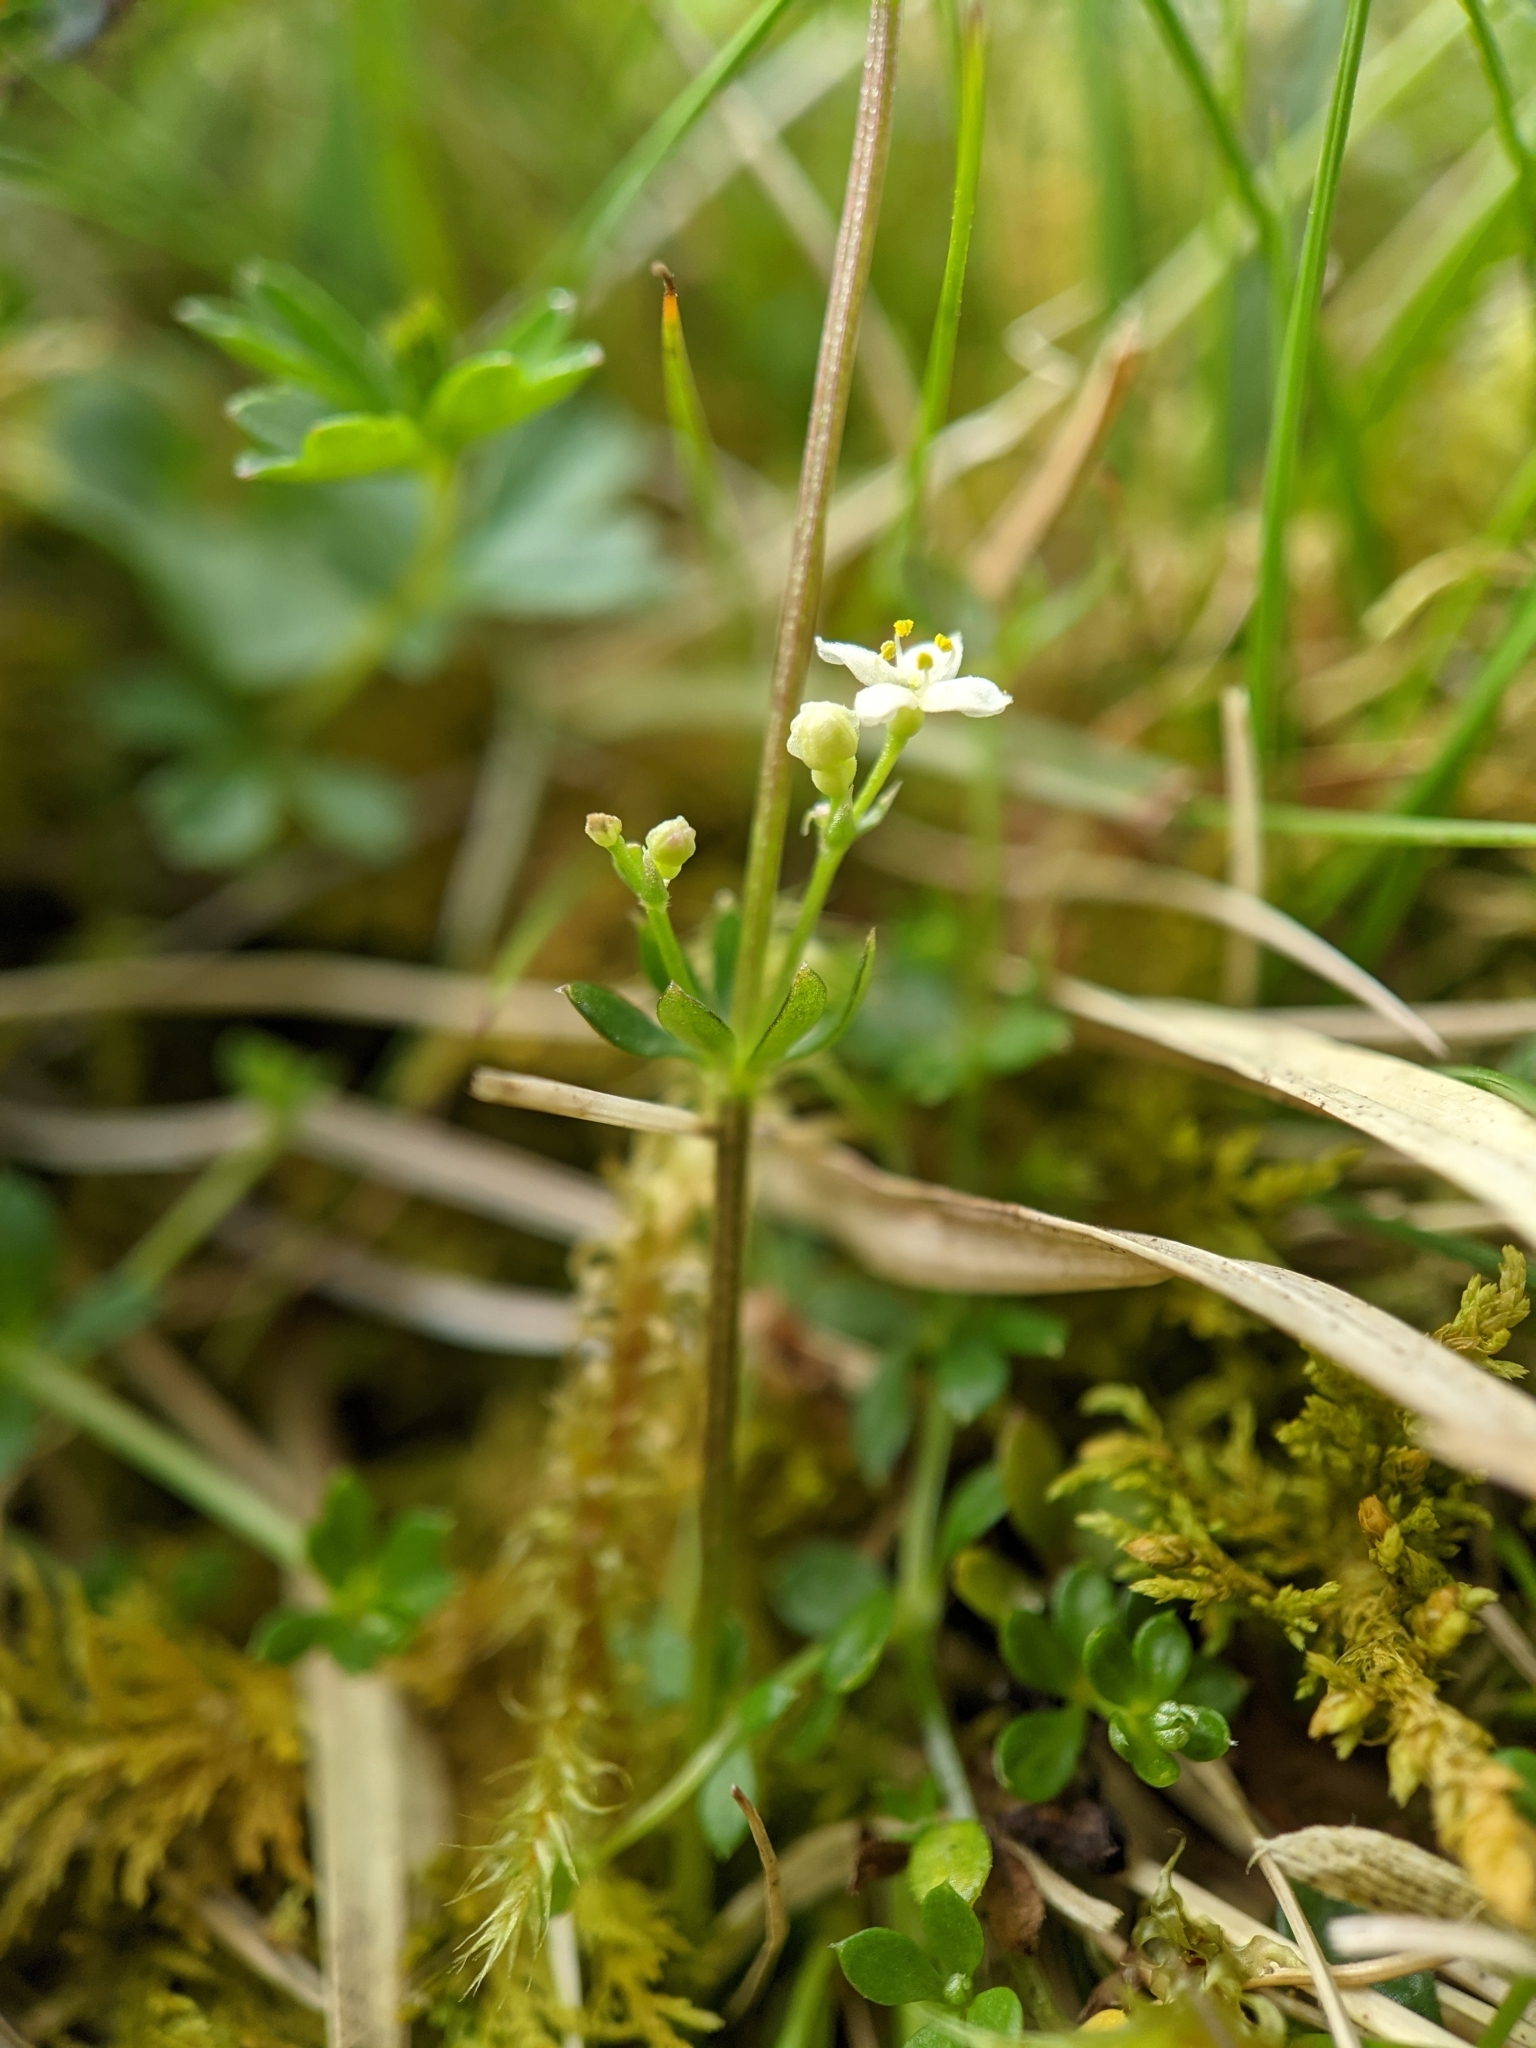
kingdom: Plantae
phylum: Tracheophyta
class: Magnoliopsida
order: Gentianales
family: Rubiaceae
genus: Galium
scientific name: Galium saxatile
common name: Heath bedstraw
